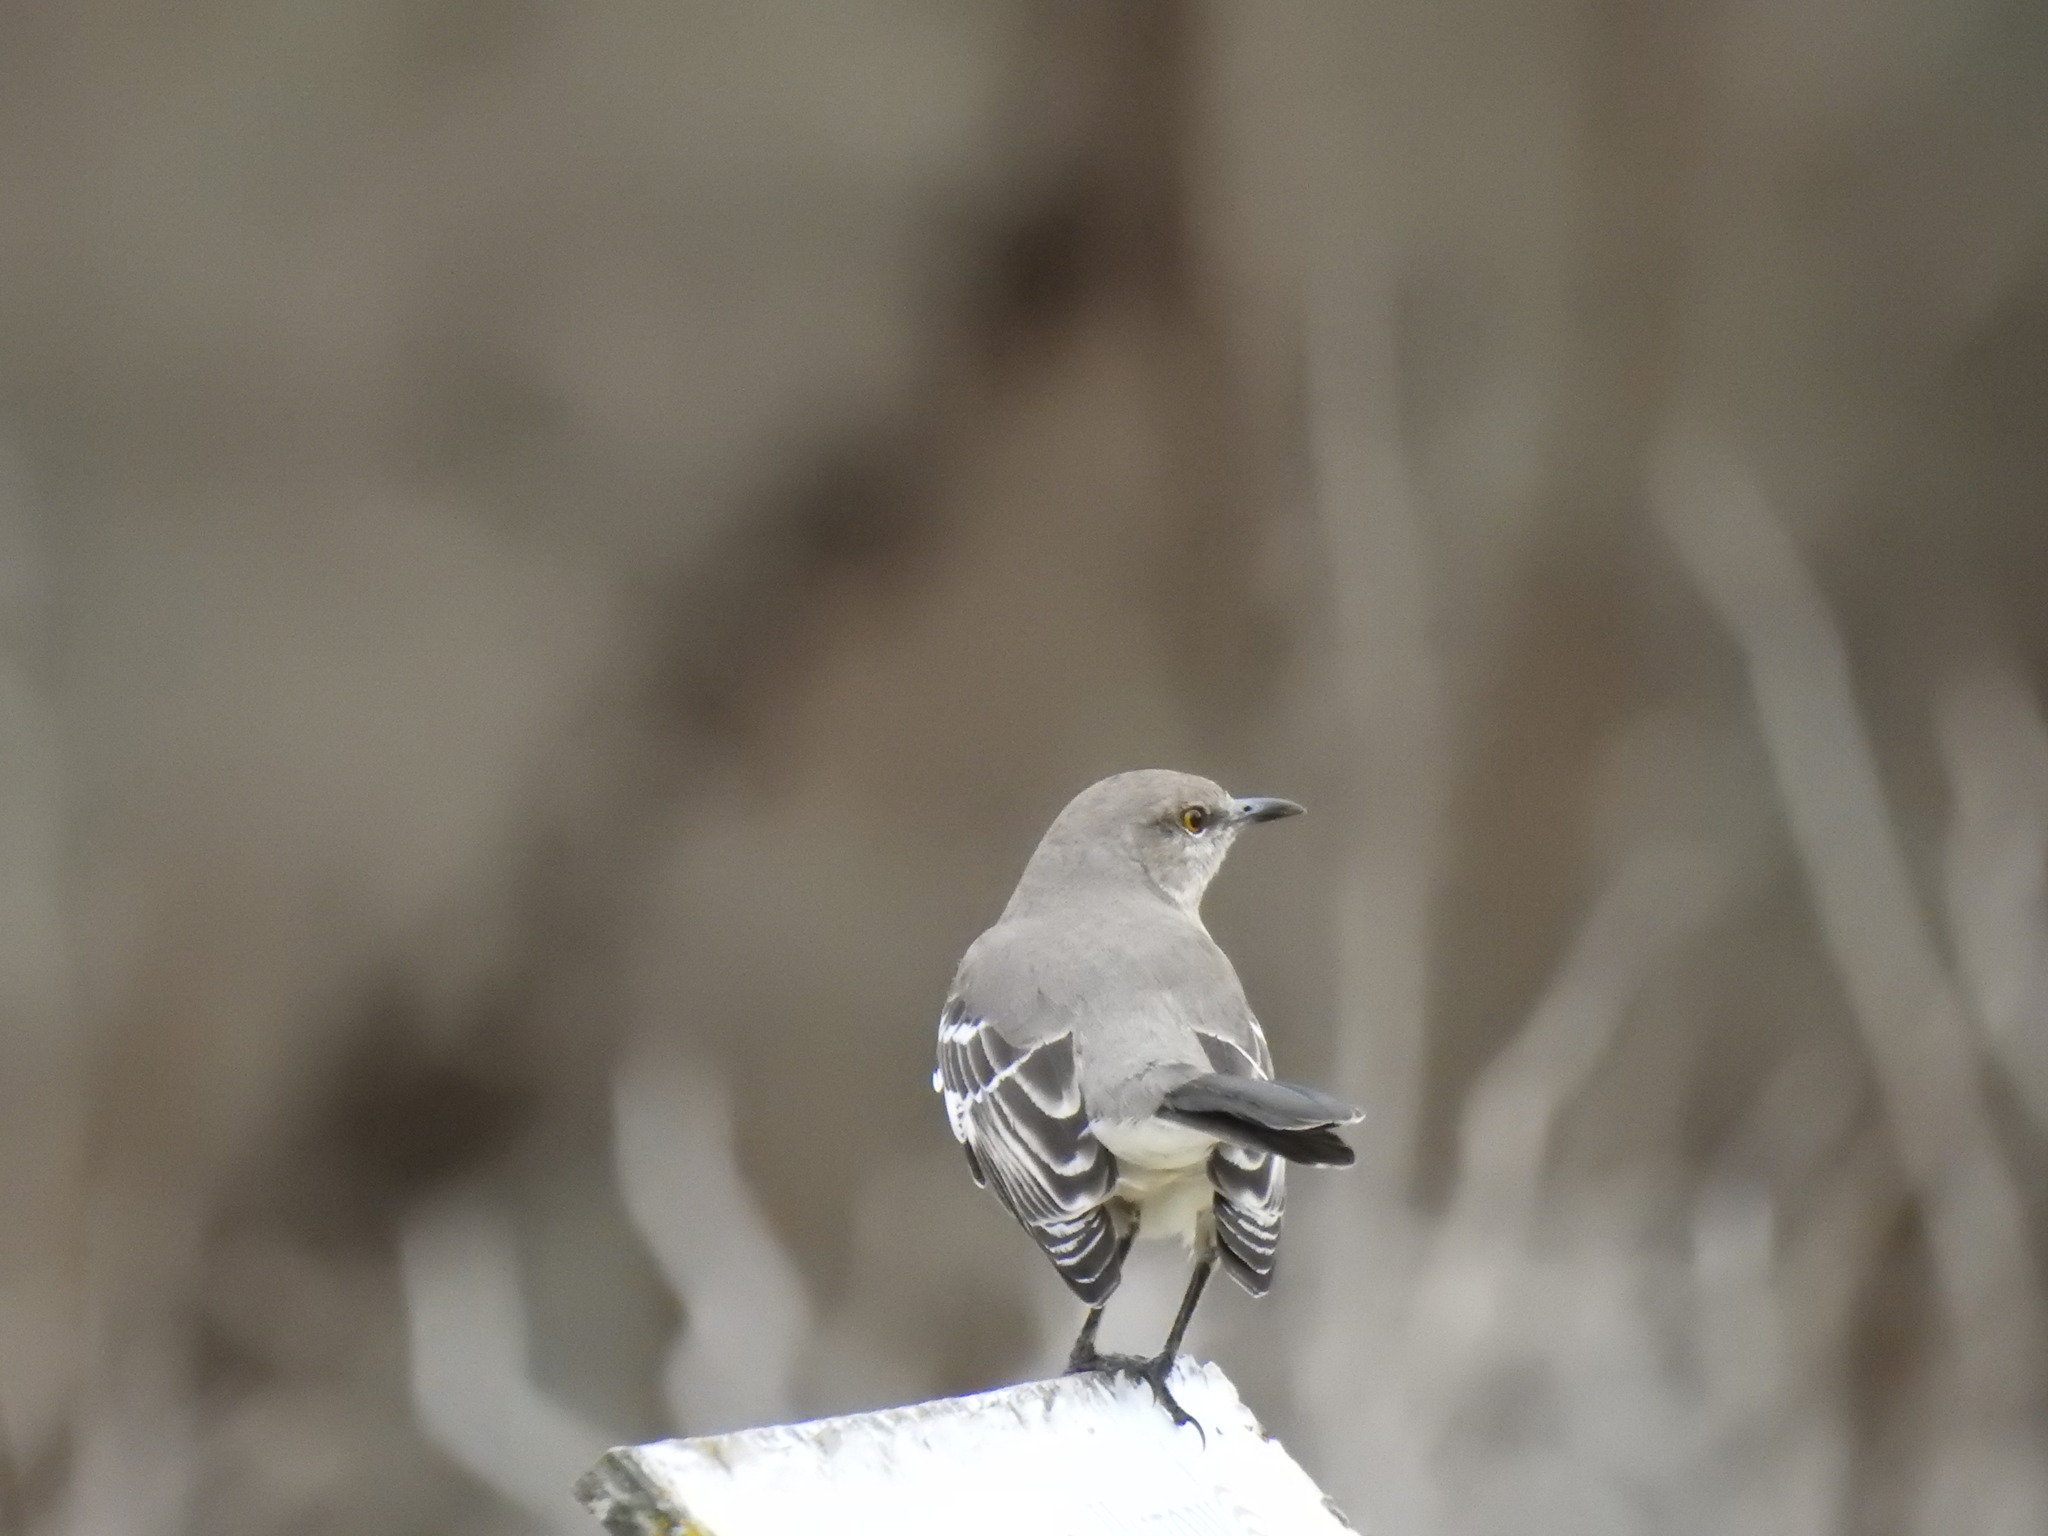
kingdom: Animalia
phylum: Chordata
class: Aves
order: Passeriformes
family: Mimidae
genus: Mimus
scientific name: Mimus polyglottos
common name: Northern mockingbird
